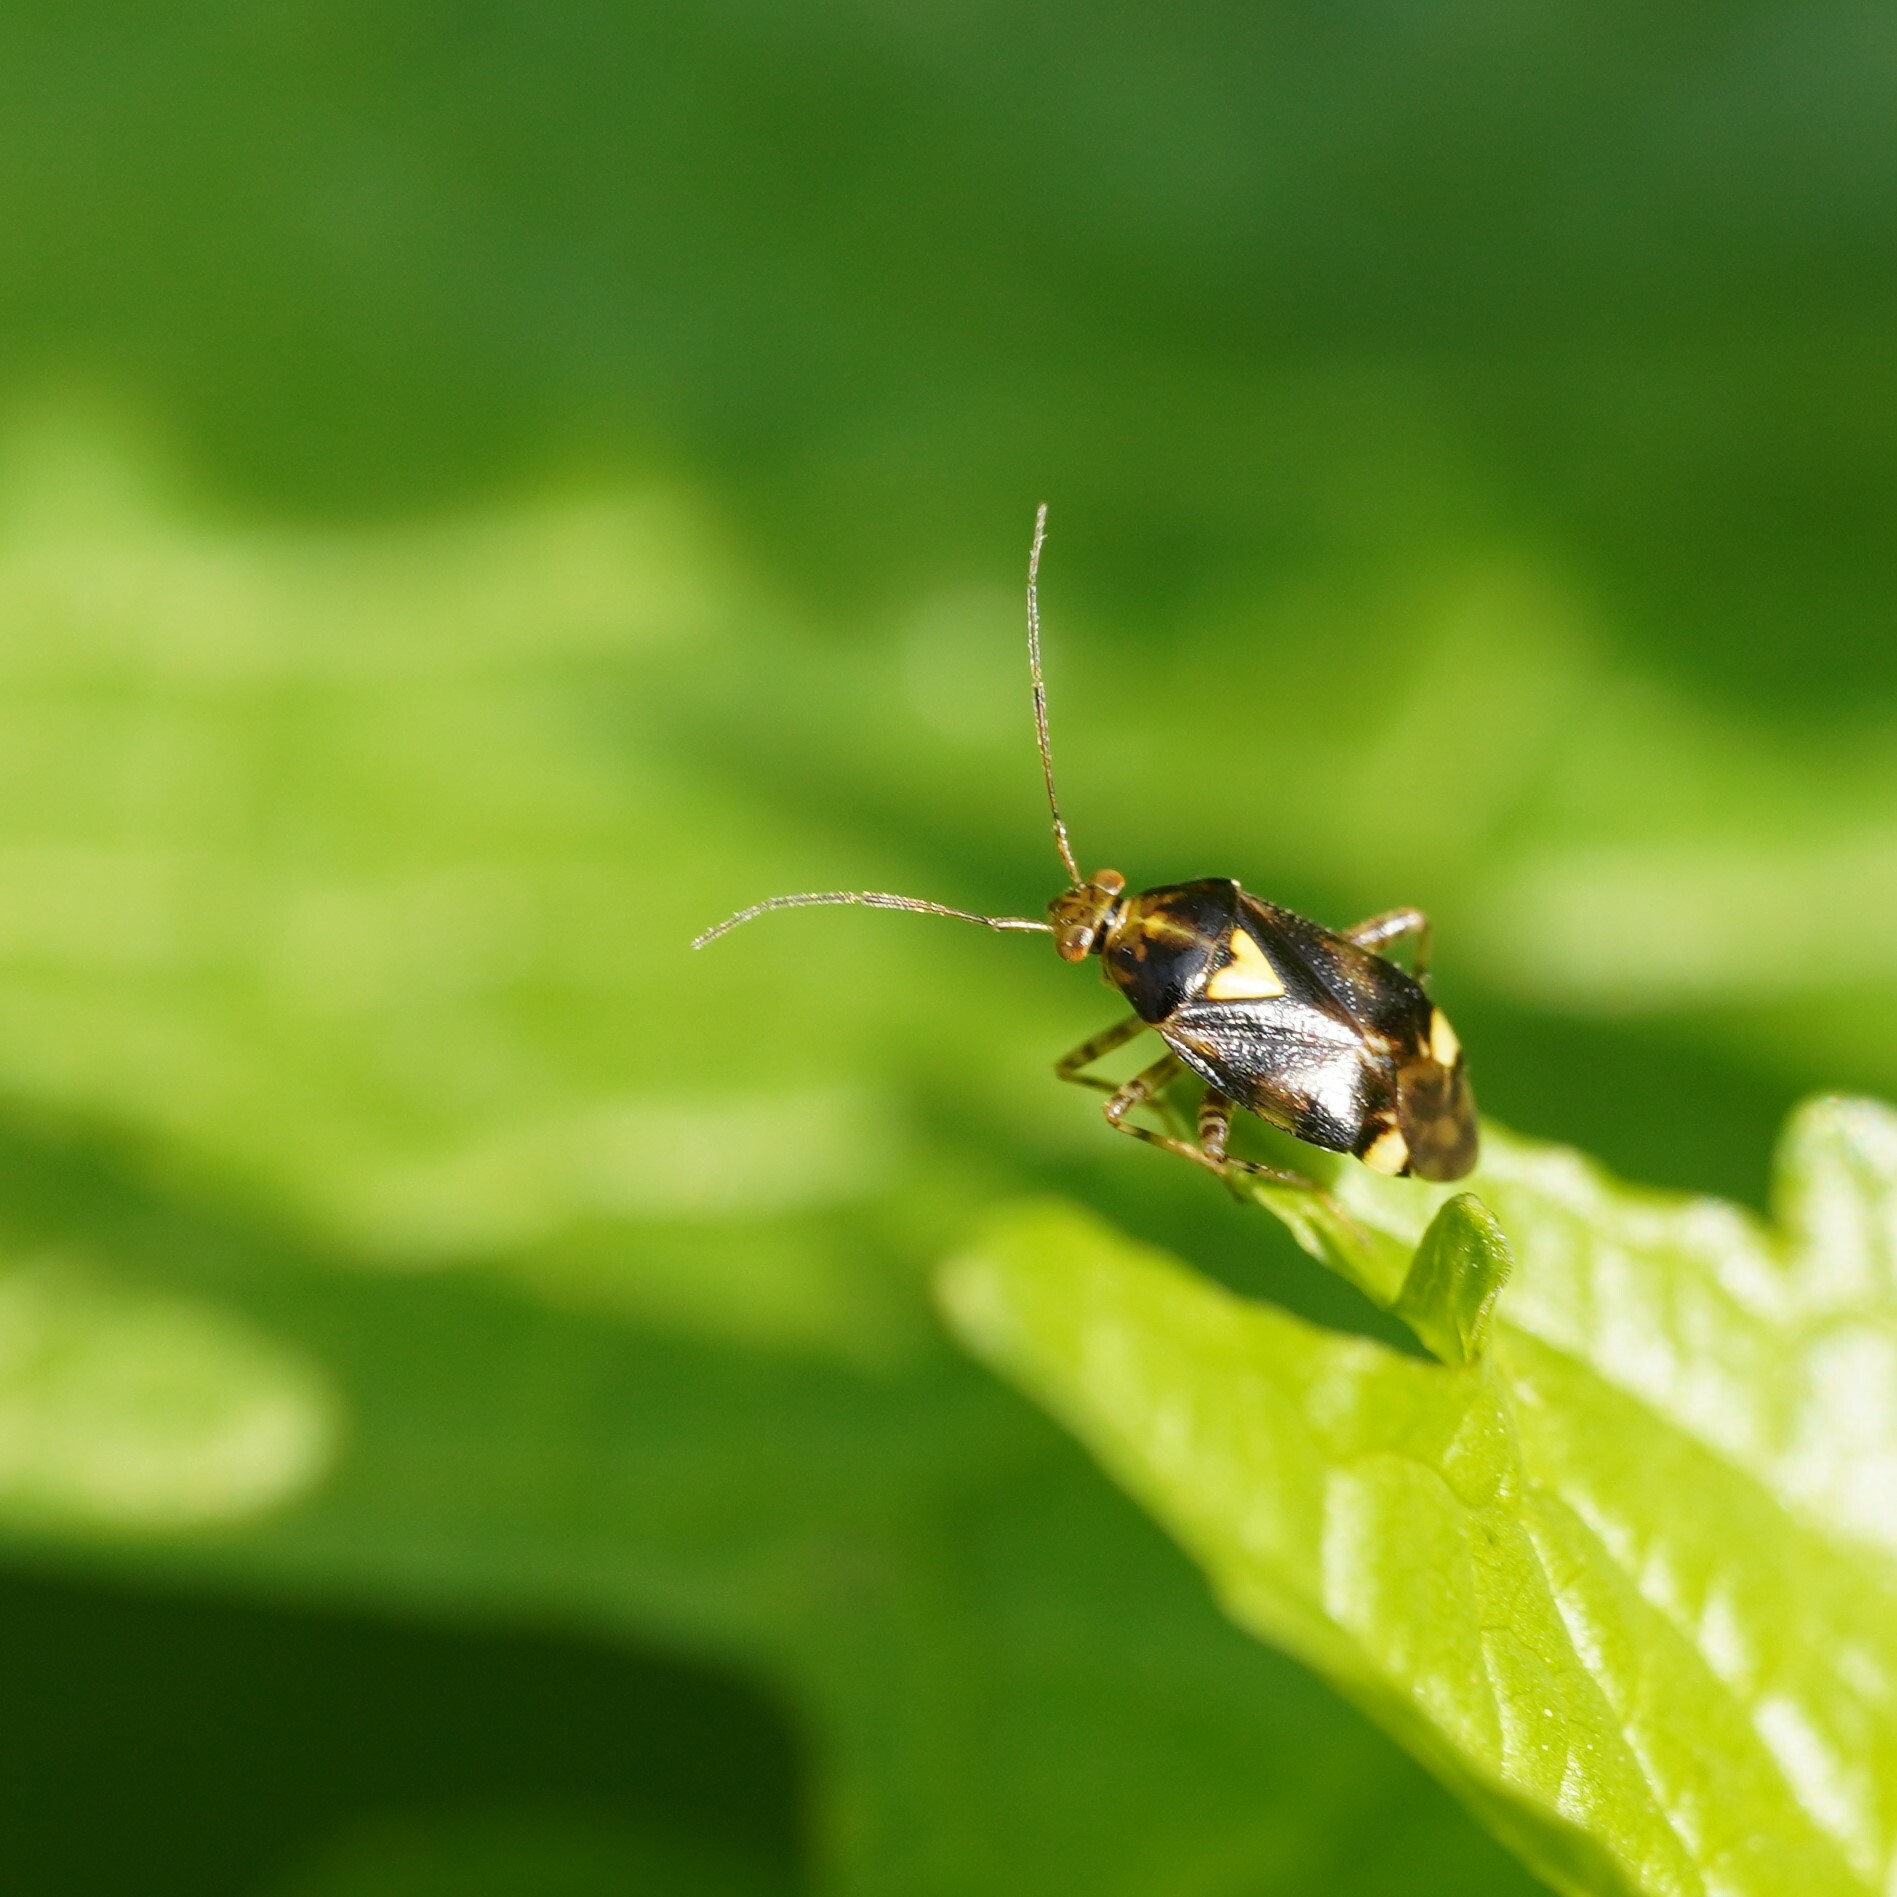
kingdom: Animalia
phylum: Arthropoda
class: Insecta
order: Hemiptera
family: Miridae
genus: Liocoris
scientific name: Liocoris tripustulatus
